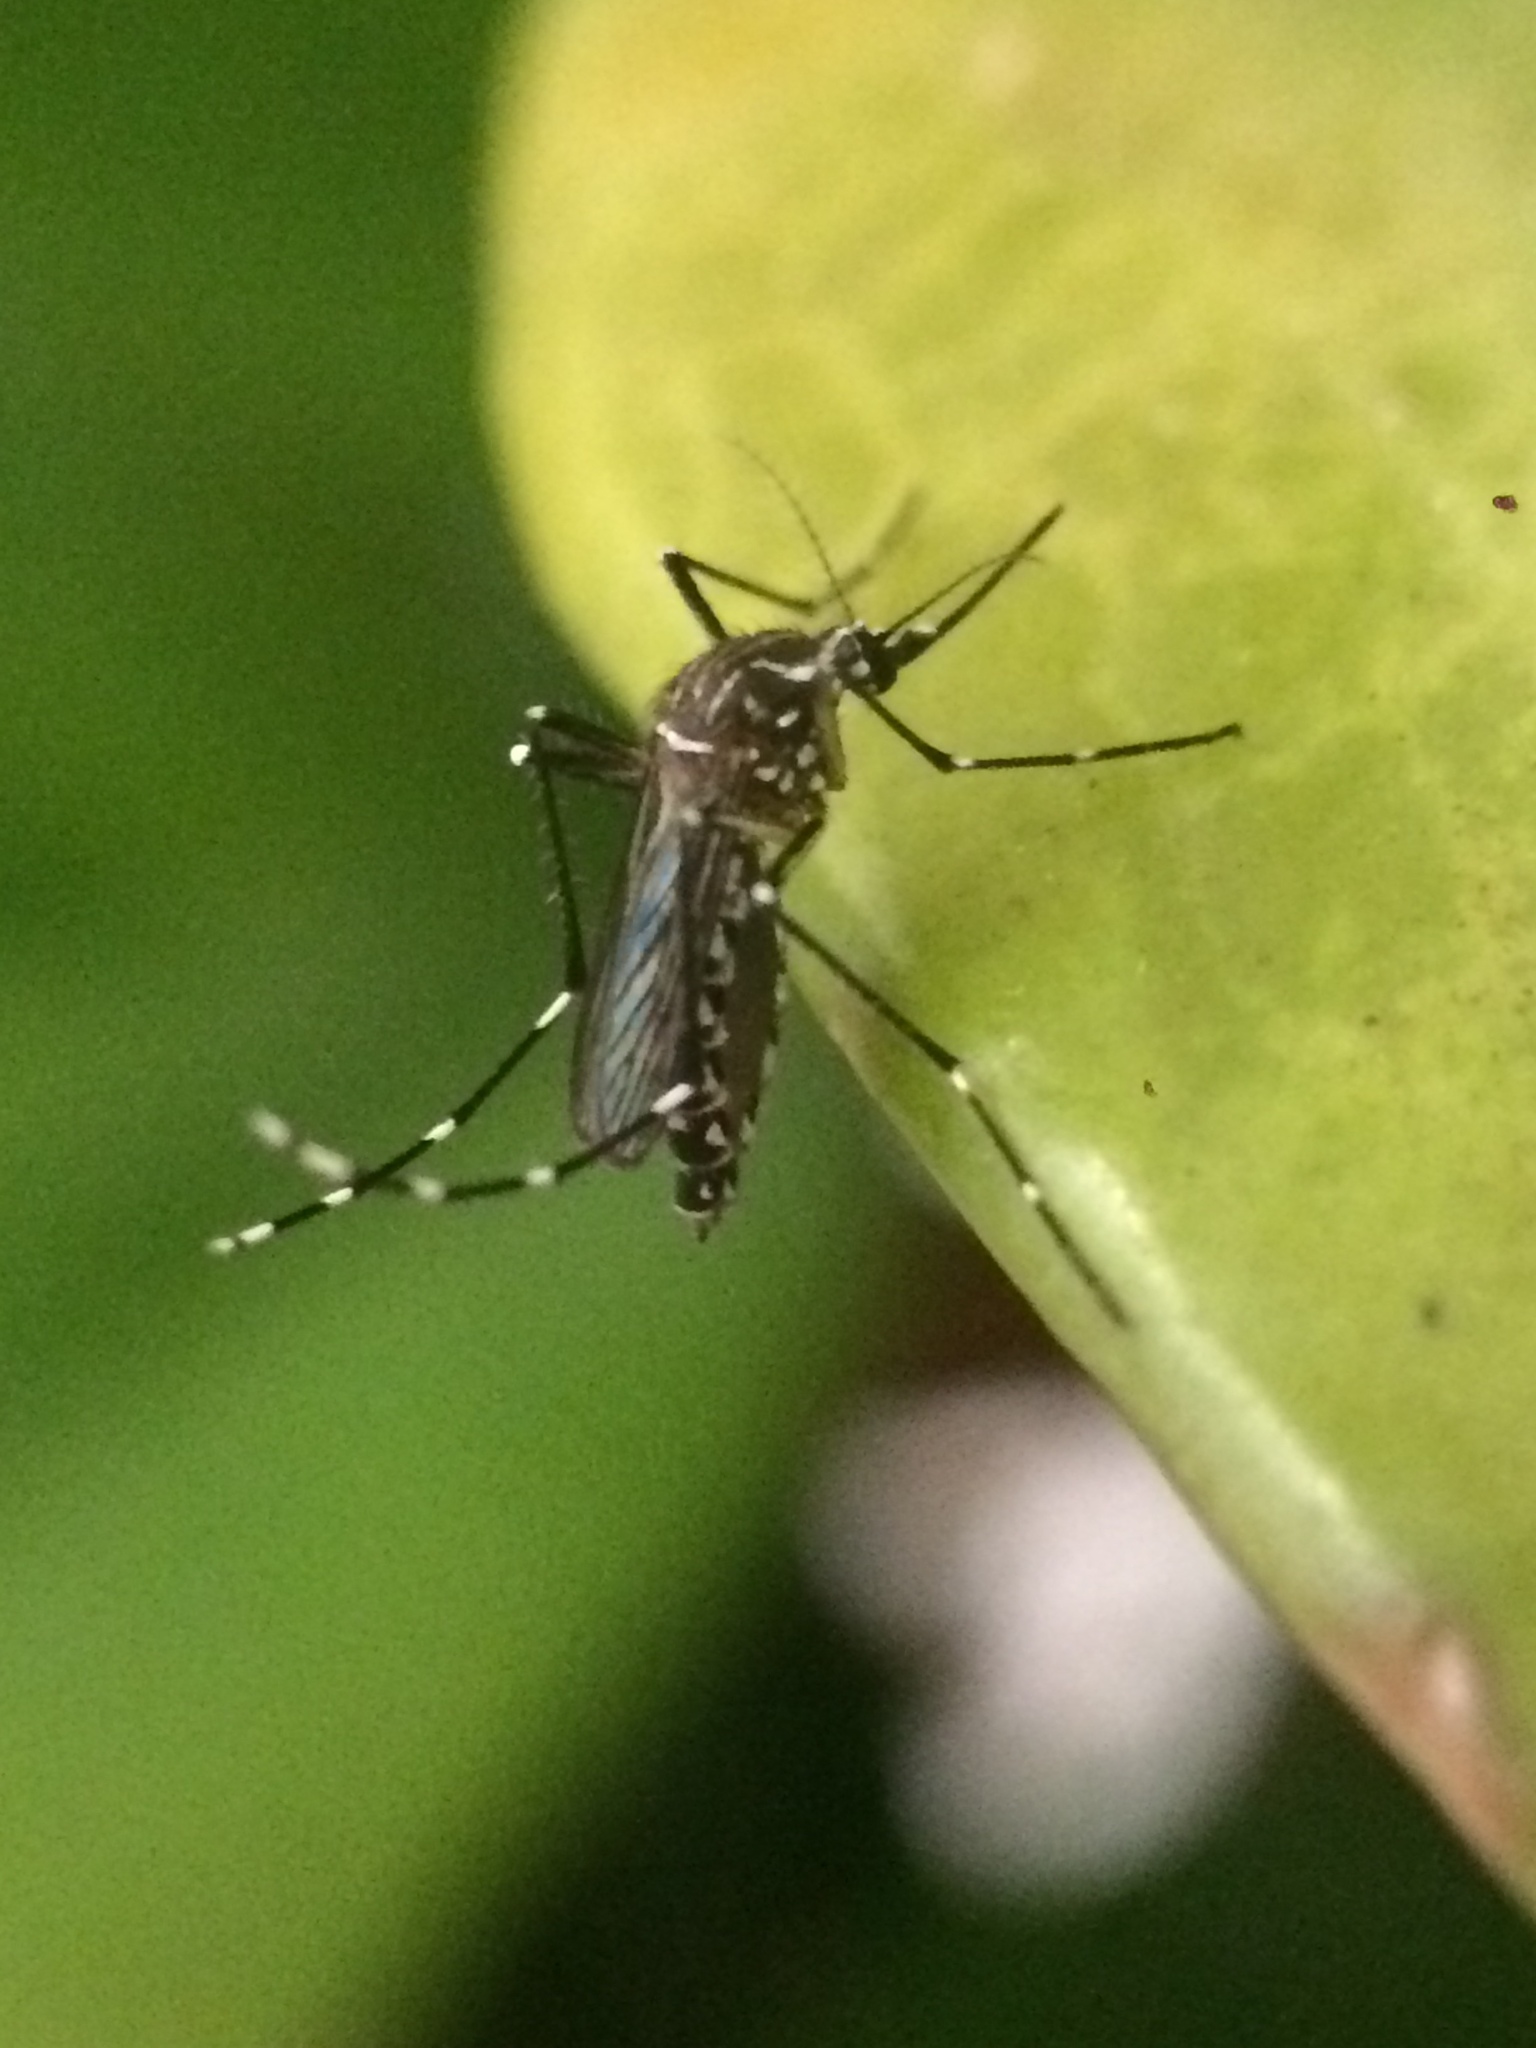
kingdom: Animalia
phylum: Arthropoda
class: Insecta
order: Diptera
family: Culicidae
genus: Aedes
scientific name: Aedes aegypti
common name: Yellow fever mosquito
